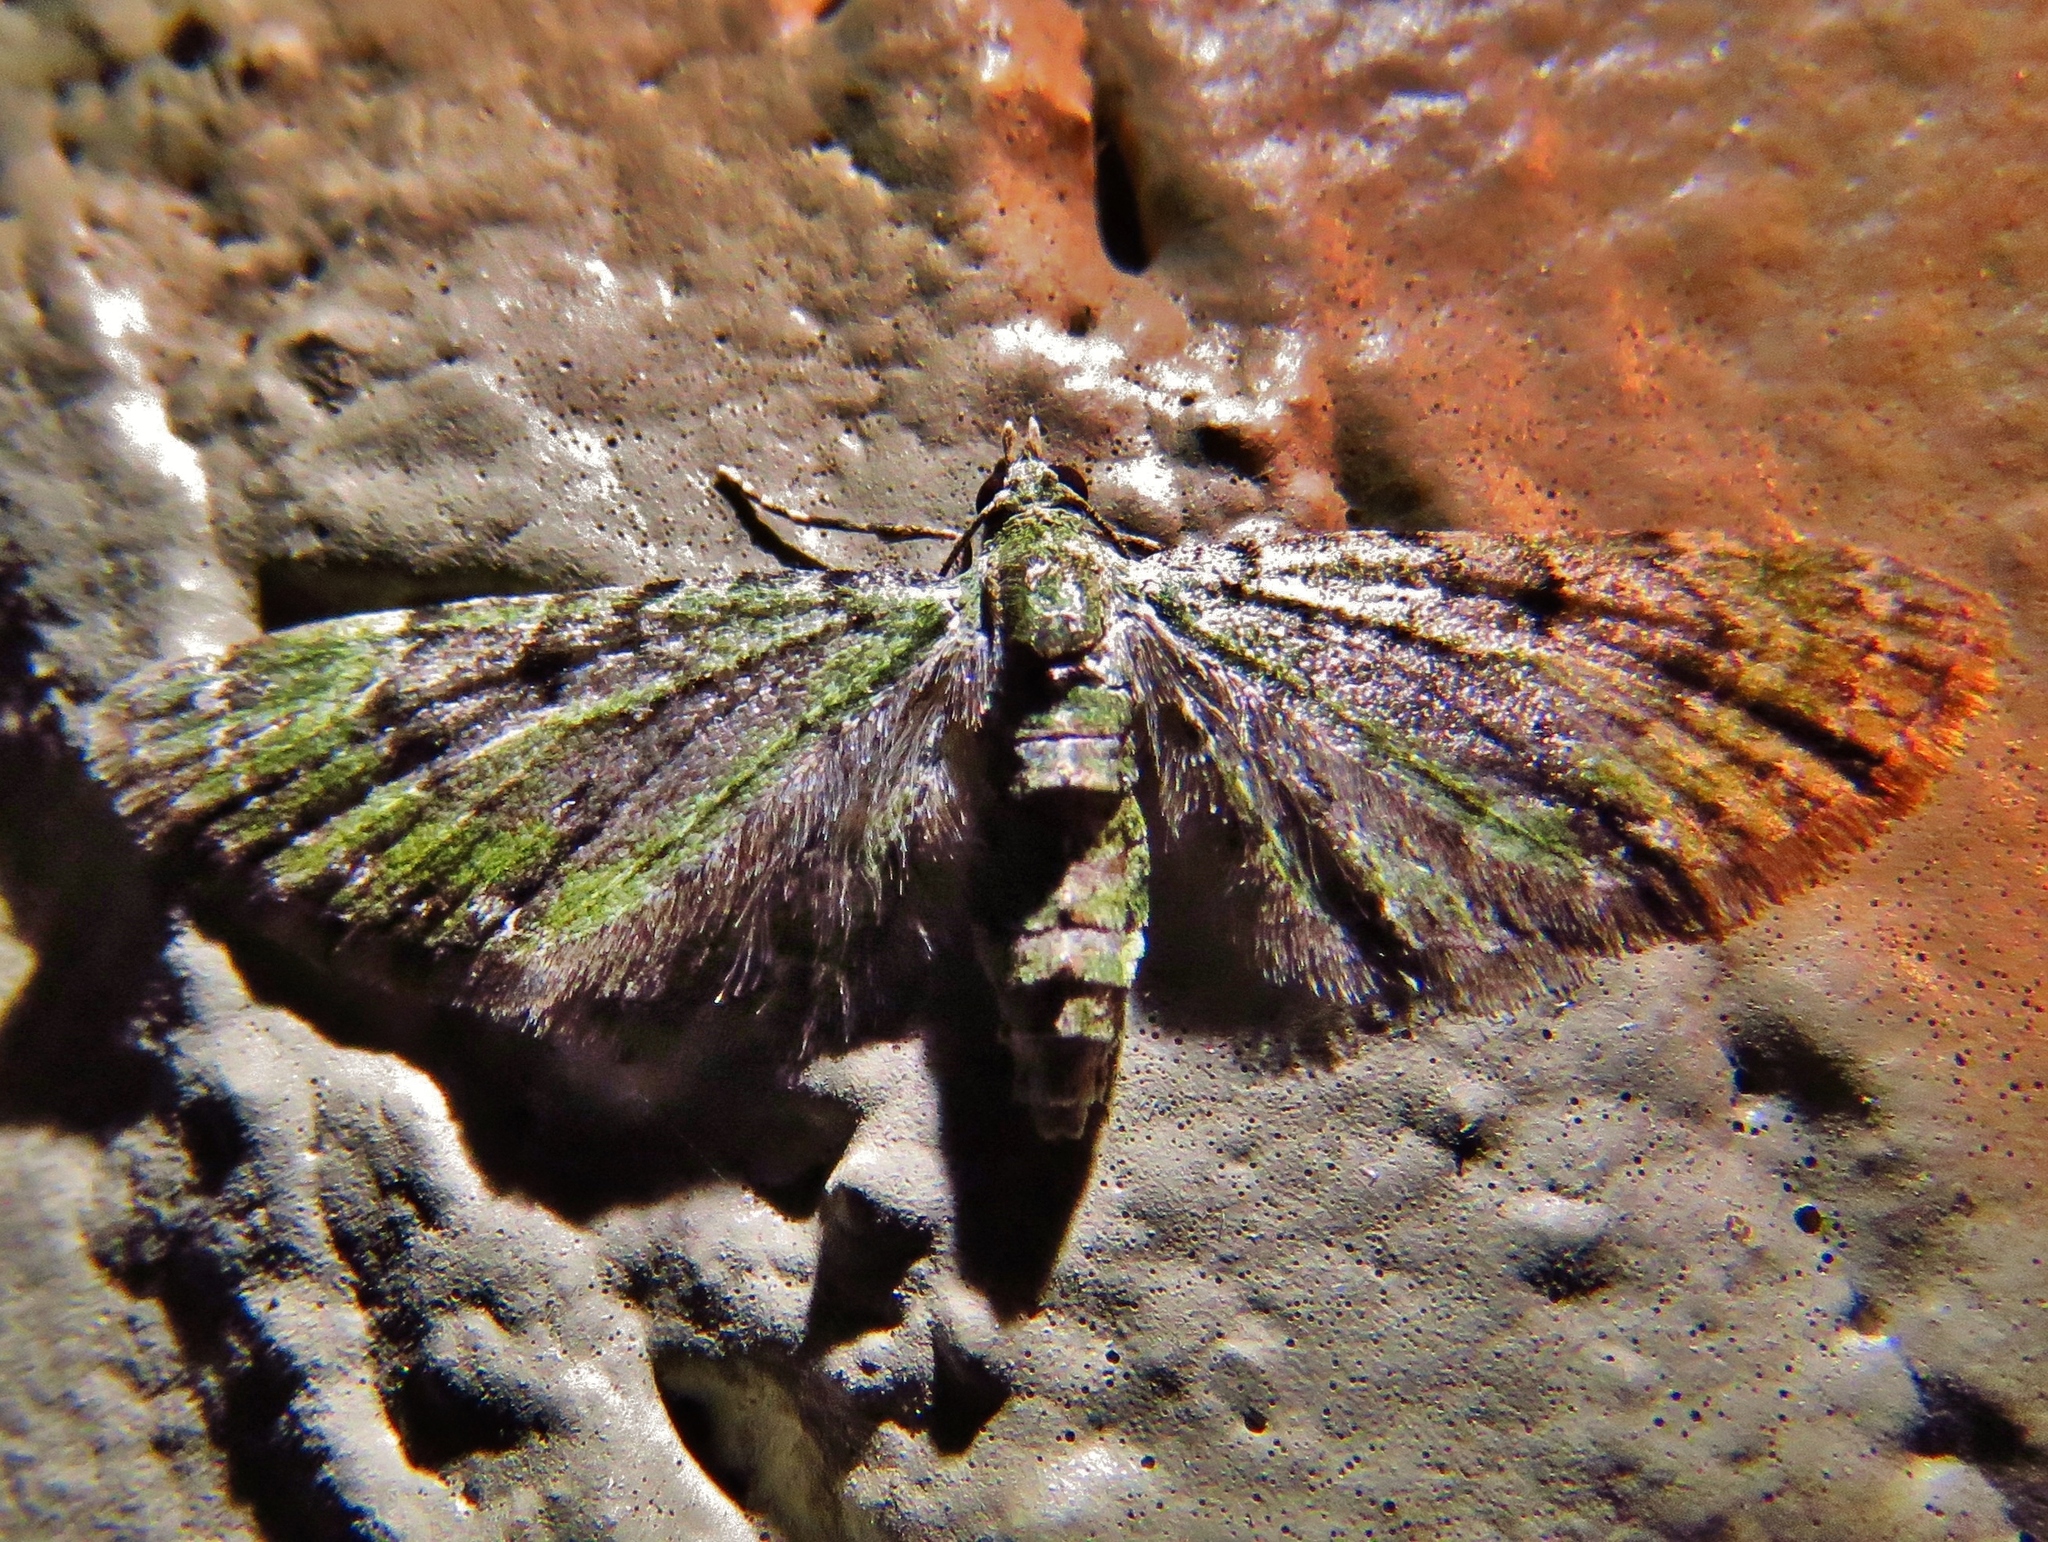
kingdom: Animalia
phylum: Arthropoda
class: Insecta
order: Lepidoptera
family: Geometridae
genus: Eupithecia
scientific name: Eupithecia miserulata
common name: Common eupithecia
